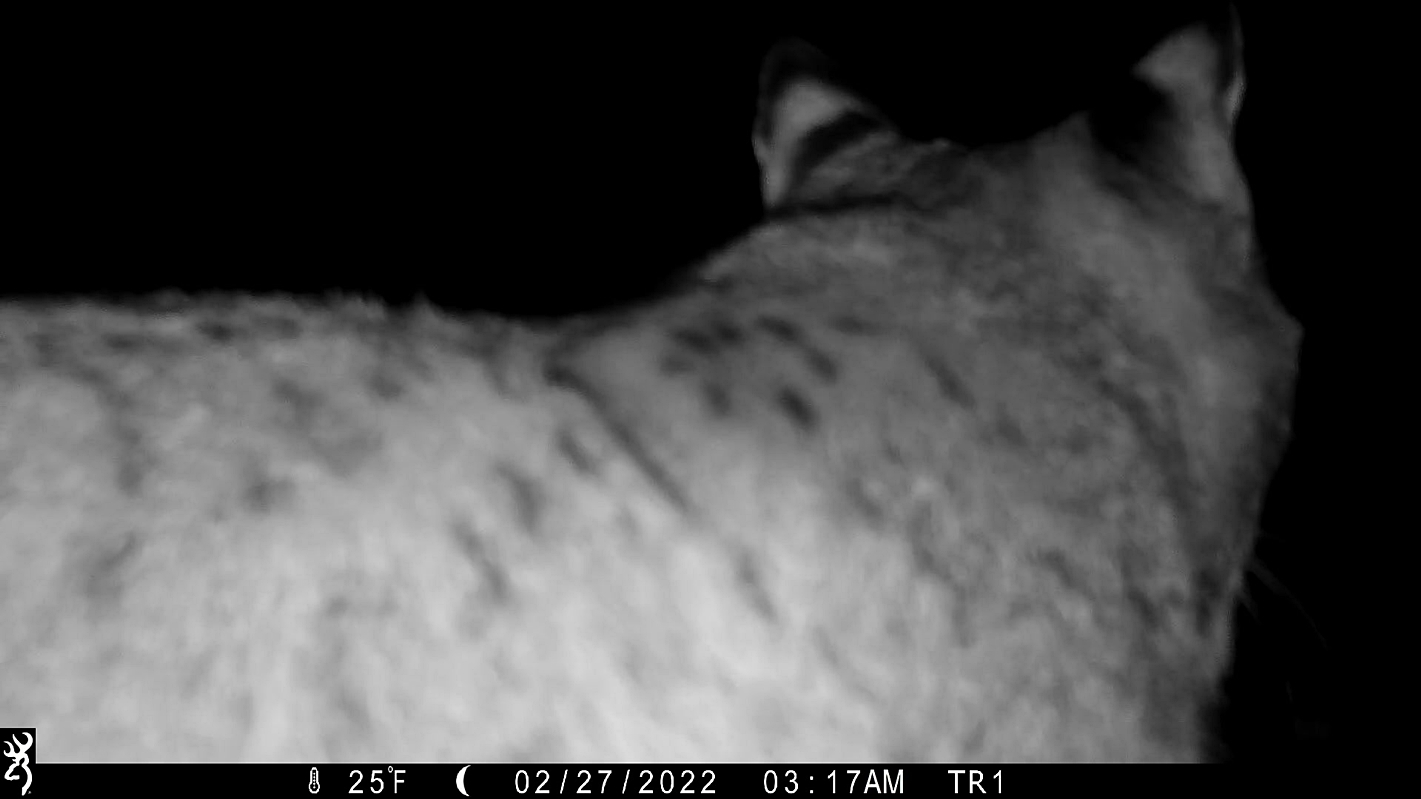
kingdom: Animalia
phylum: Chordata
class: Mammalia
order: Carnivora
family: Felidae
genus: Lynx
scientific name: Lynx rufus
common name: Bobcat
